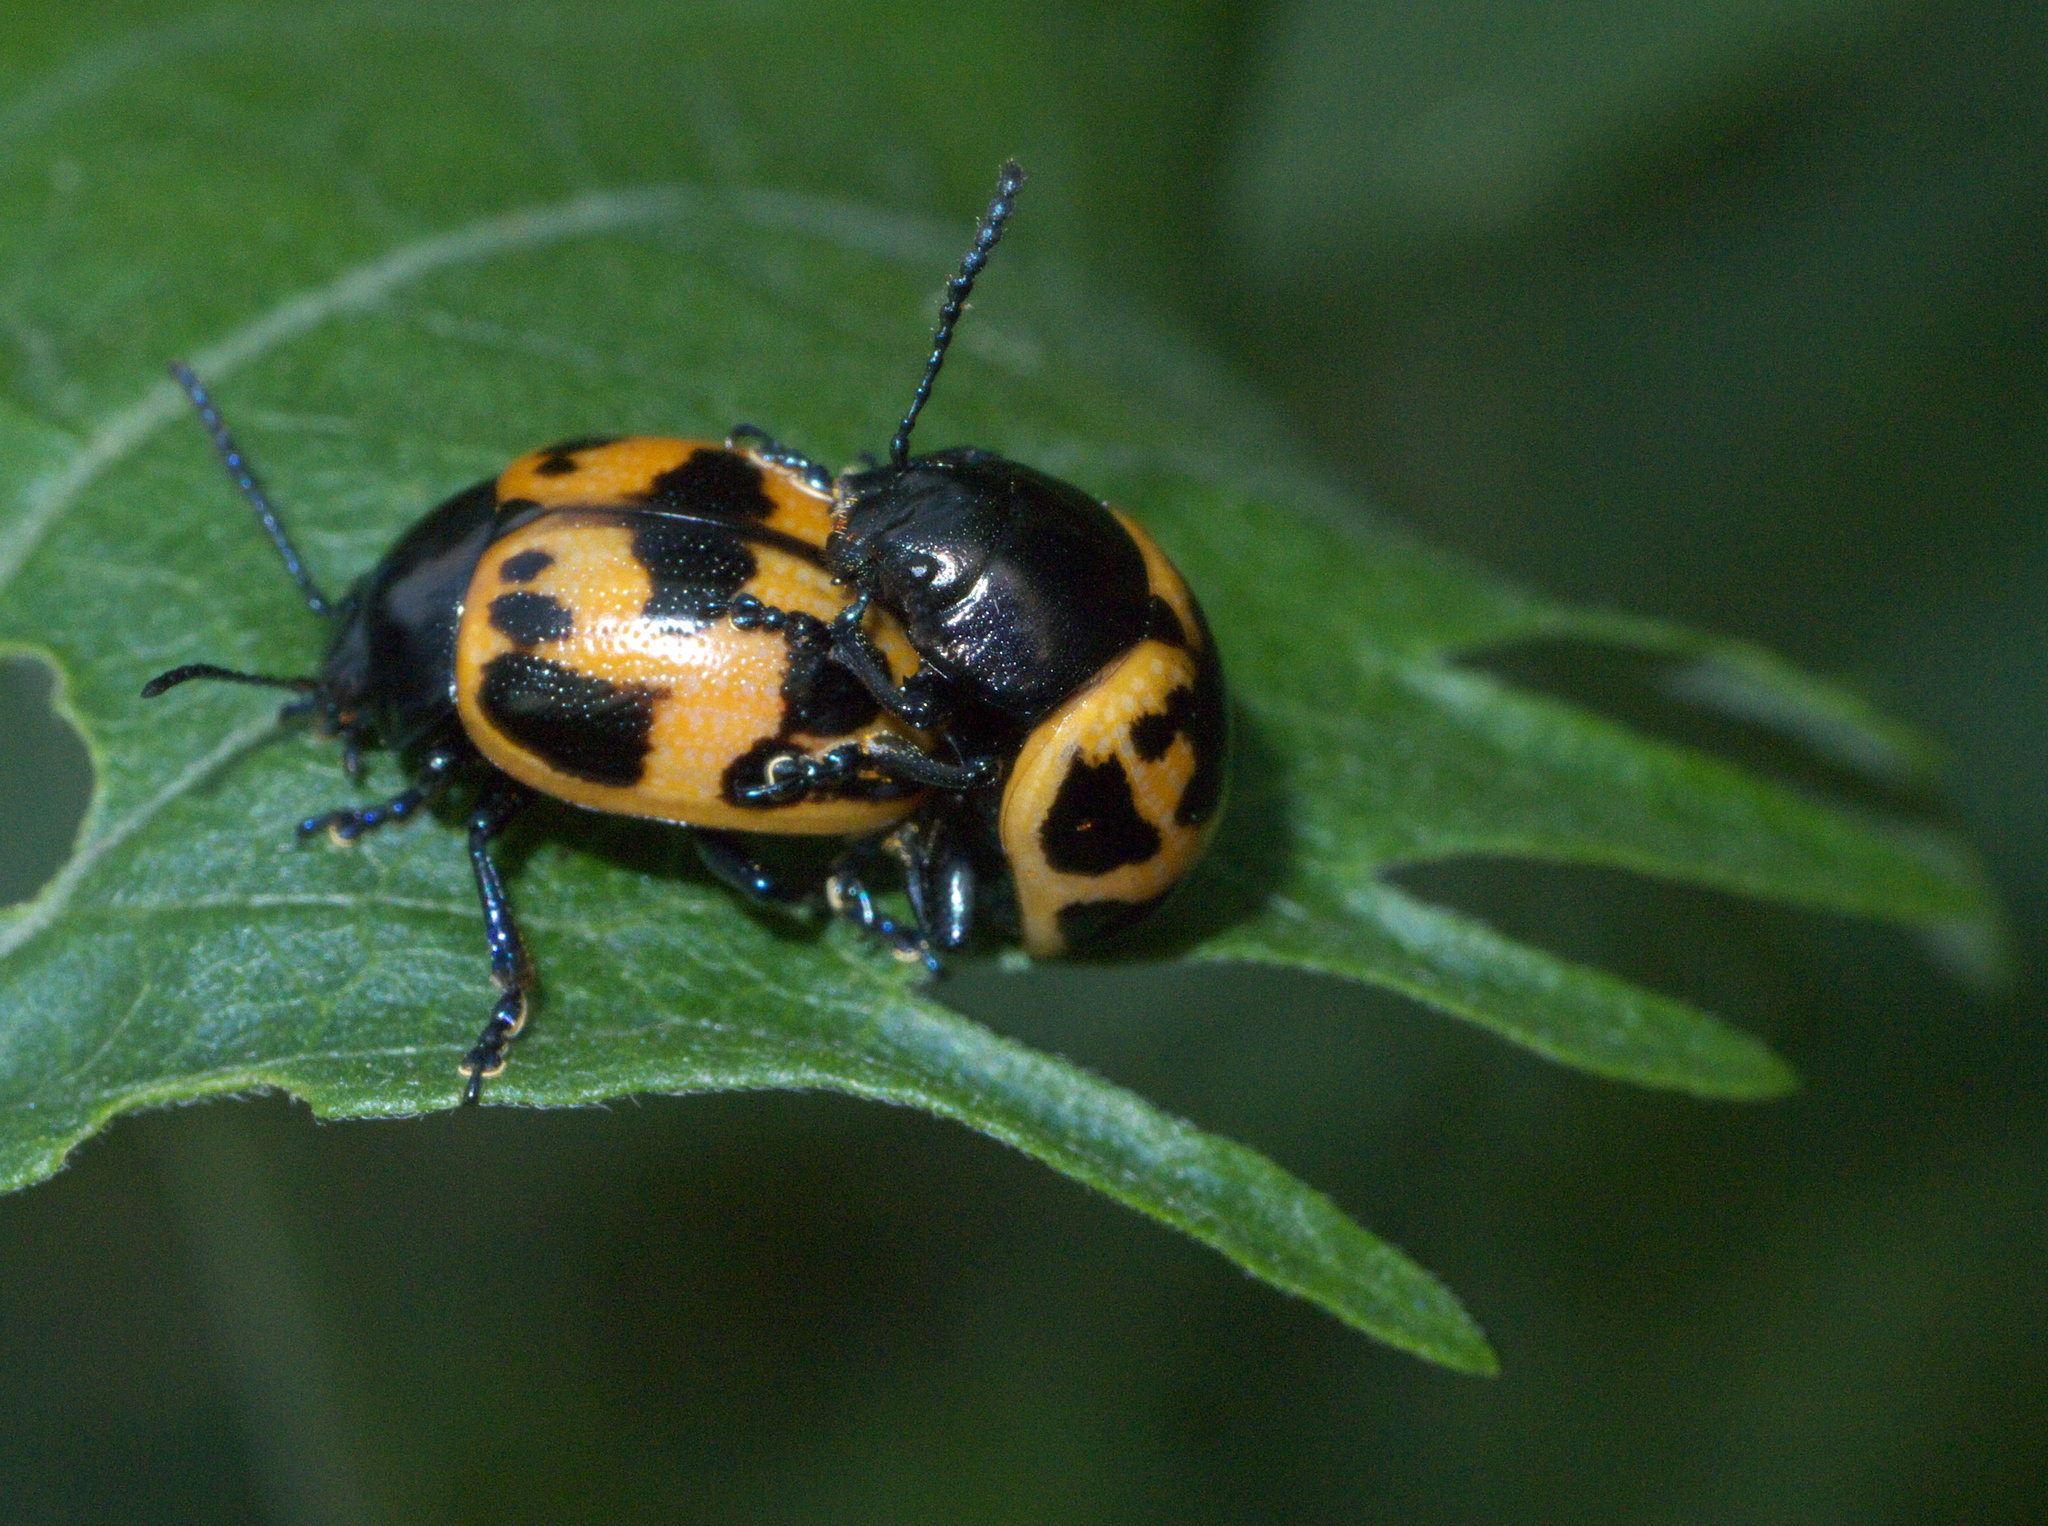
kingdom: Animalia
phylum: Arthropoda
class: Insecta
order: Coleoptera
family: Chrysomelidae
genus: Labidomera
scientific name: Labidomera clivicollis
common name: Swamp milkweed leaf beetle
